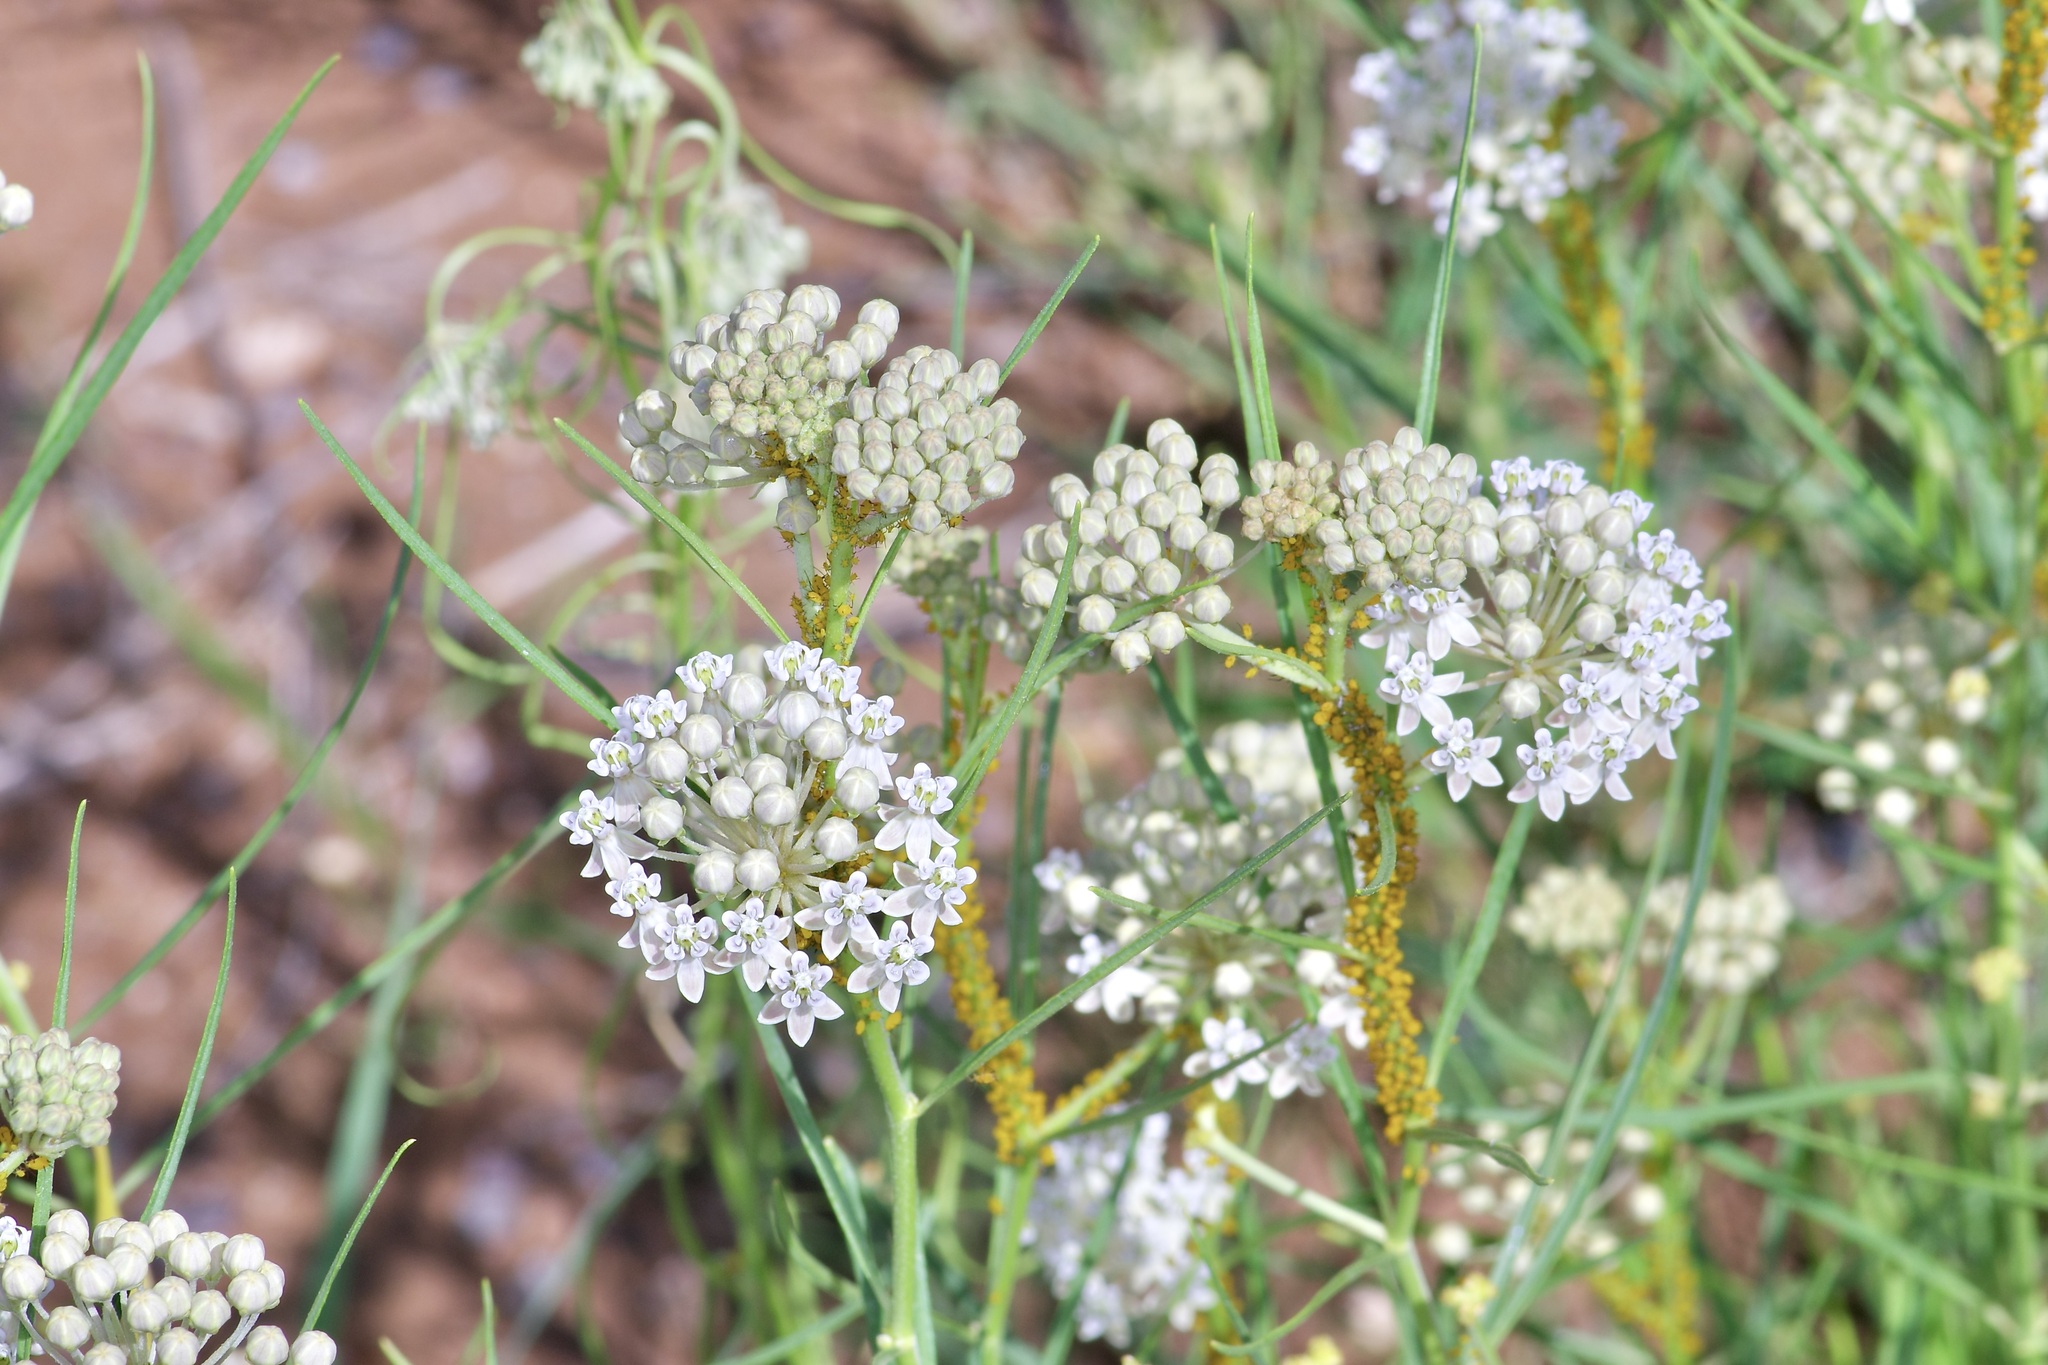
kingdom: Plantae
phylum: Tracheophyta
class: Magnoliopsida
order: Gentianales
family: Apocynaceae
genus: Asclepias
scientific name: Asclepias subverticillata
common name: Horsetail milkweed
